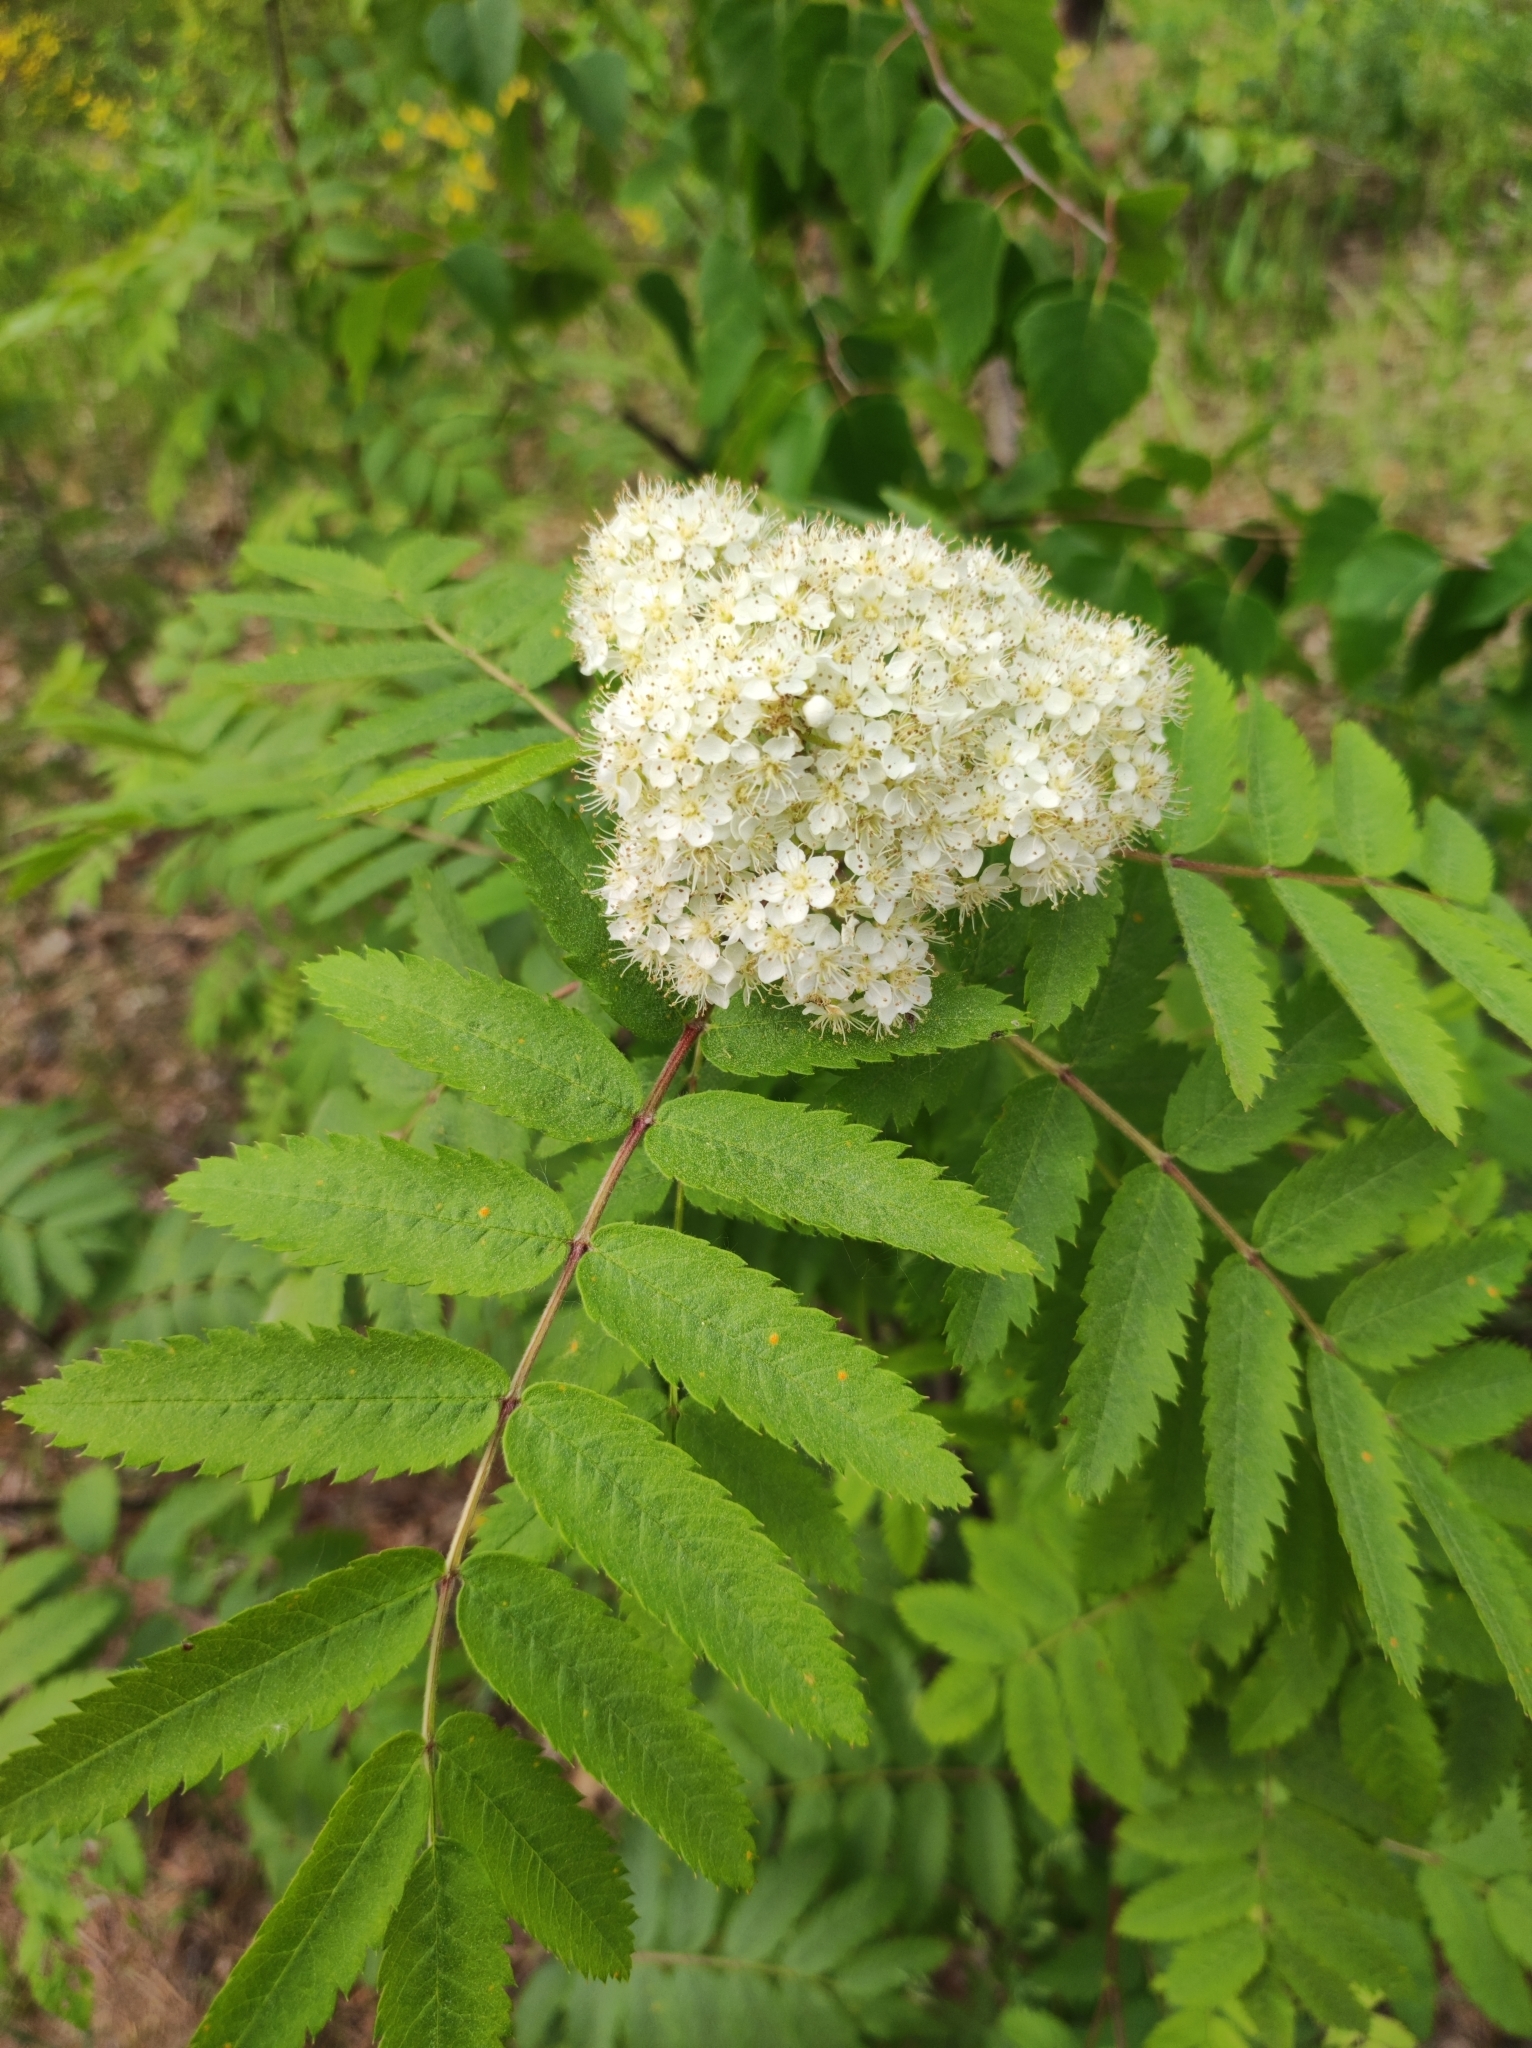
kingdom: Plantae
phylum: Tracheophyta
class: Magnoliopsida
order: Rosales
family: Rosaceae
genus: Sorbus
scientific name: Sorbus aucuparia
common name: Rowan
